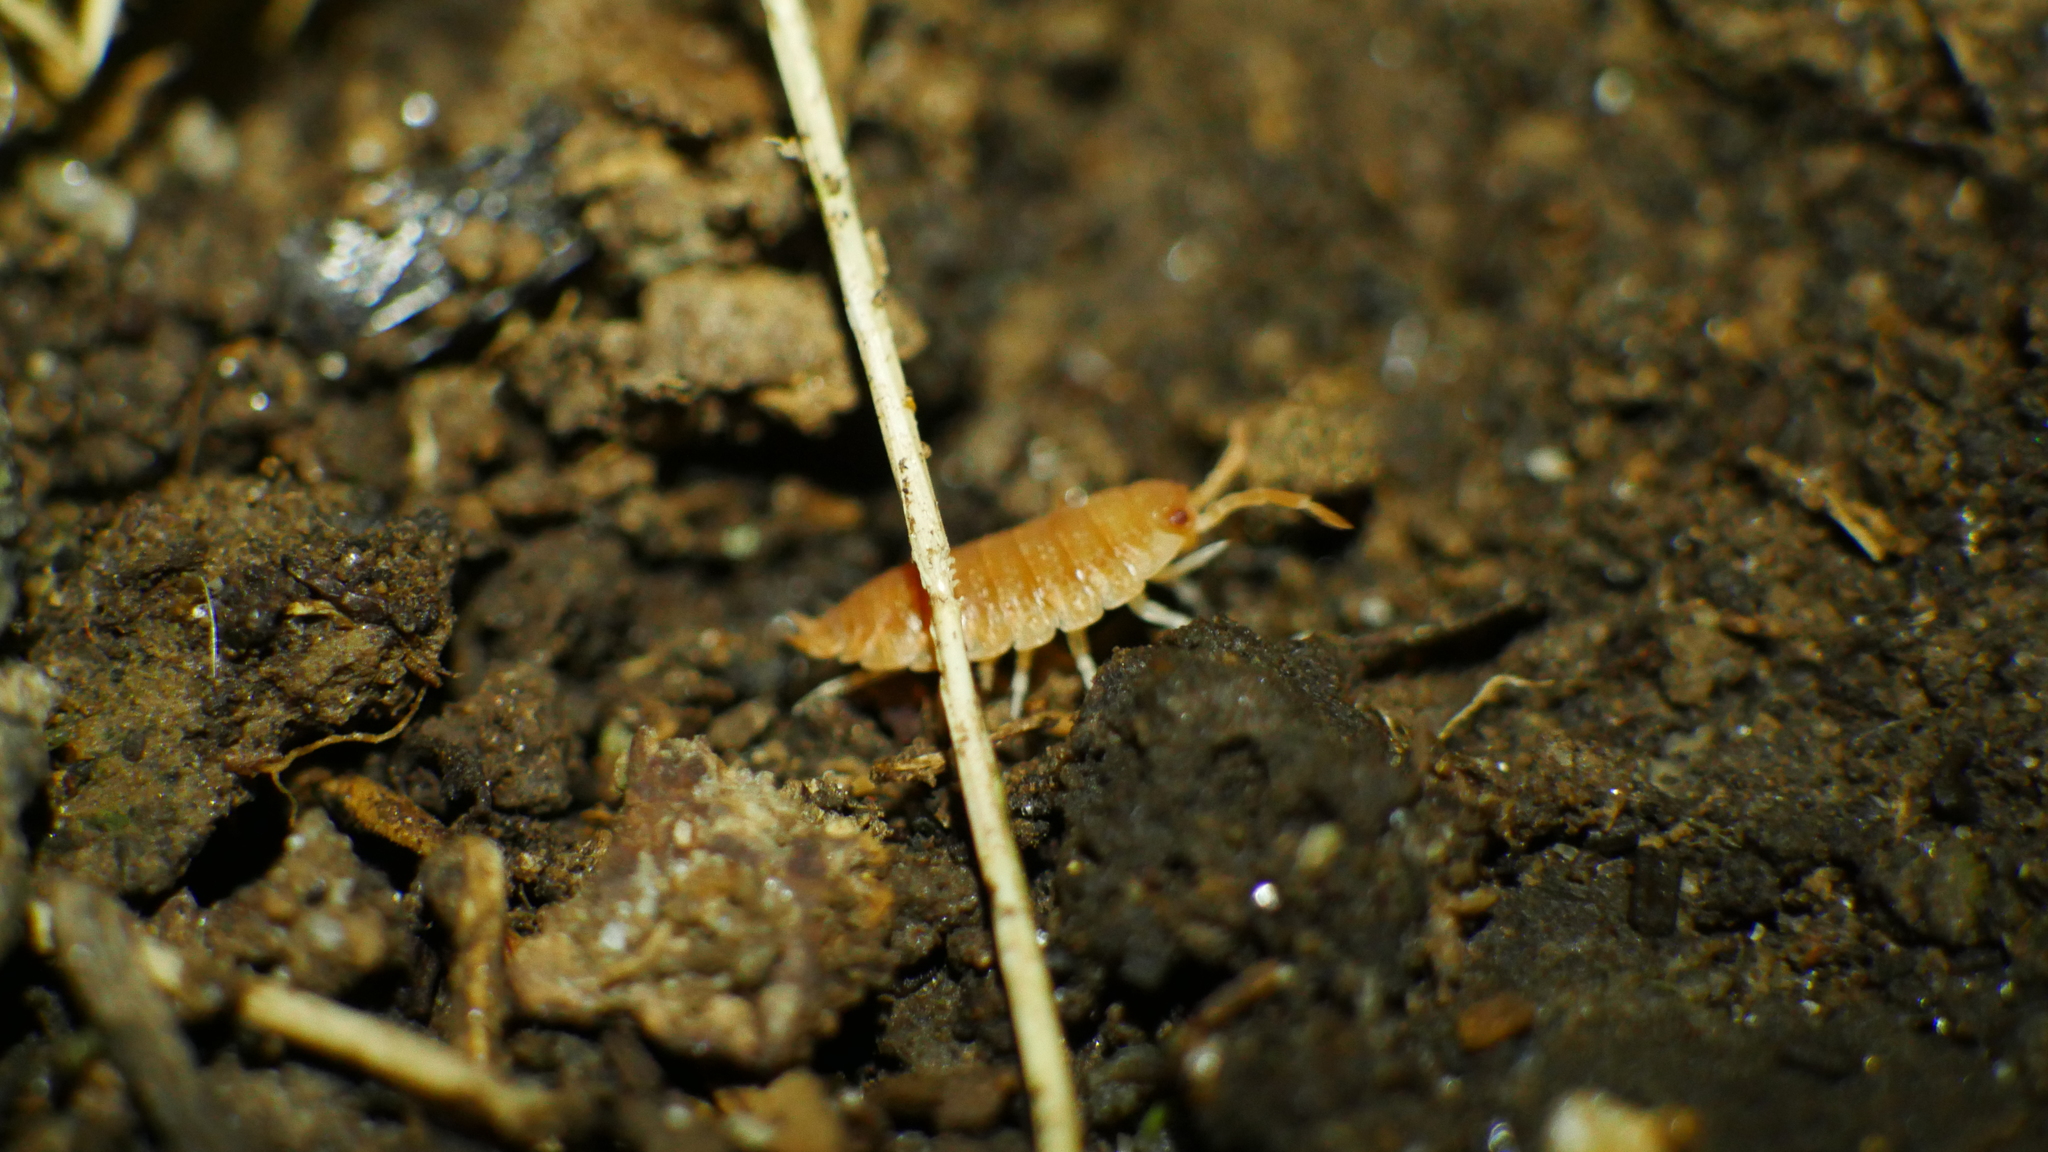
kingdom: Animalia
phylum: Arthropoda
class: Malacostraca
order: Isopoda
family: Porcellionidae
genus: Porcellio
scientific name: Porcellio scaber
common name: Common rough woodlouse
